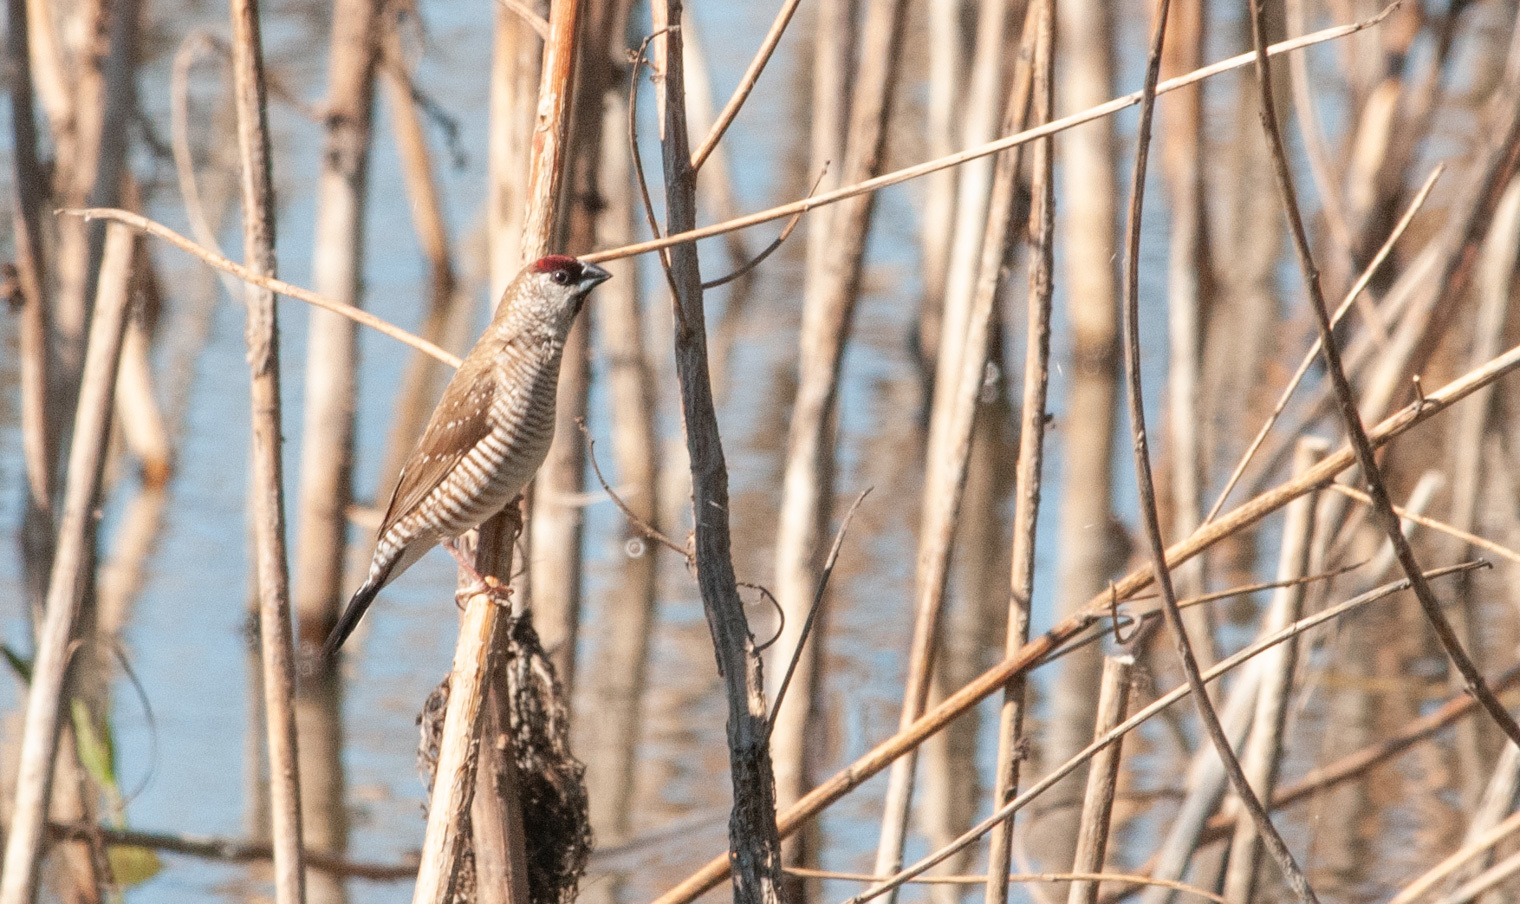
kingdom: Animalia
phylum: Chordata
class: Aves
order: Passeriformes
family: Estrildidae
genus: Neochmia
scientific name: Neochmia modesta
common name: Plum-headed finch
